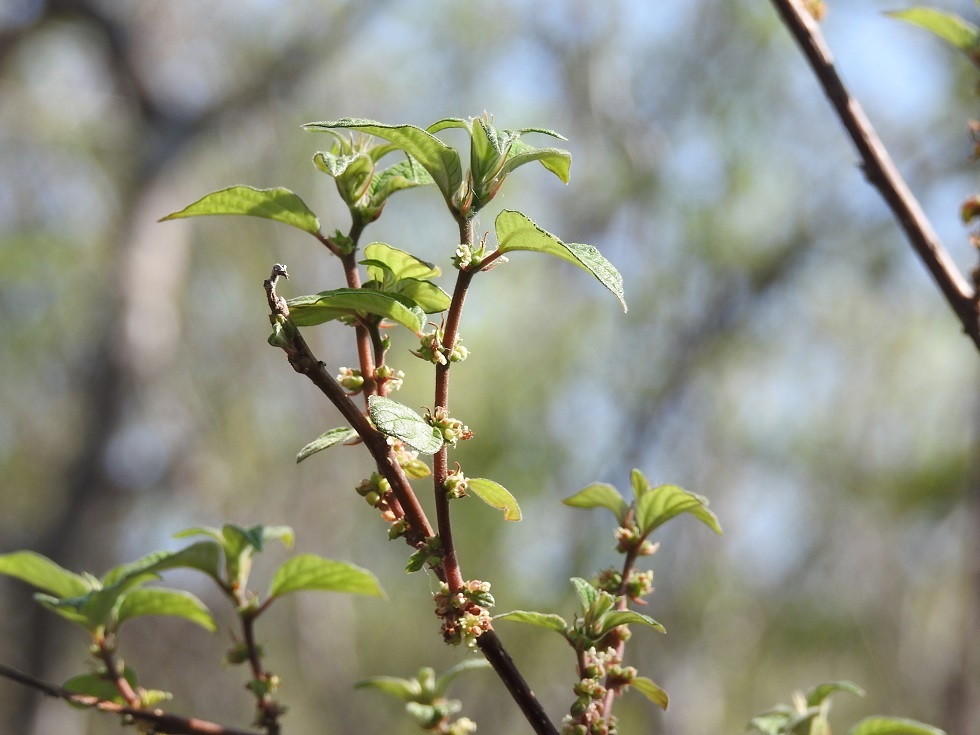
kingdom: Plantae
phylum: Tracheophyta
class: Magnoliopsida
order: Rosales
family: Urticaceae
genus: Pouzolzia
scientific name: Pouzolzia occidentalis
